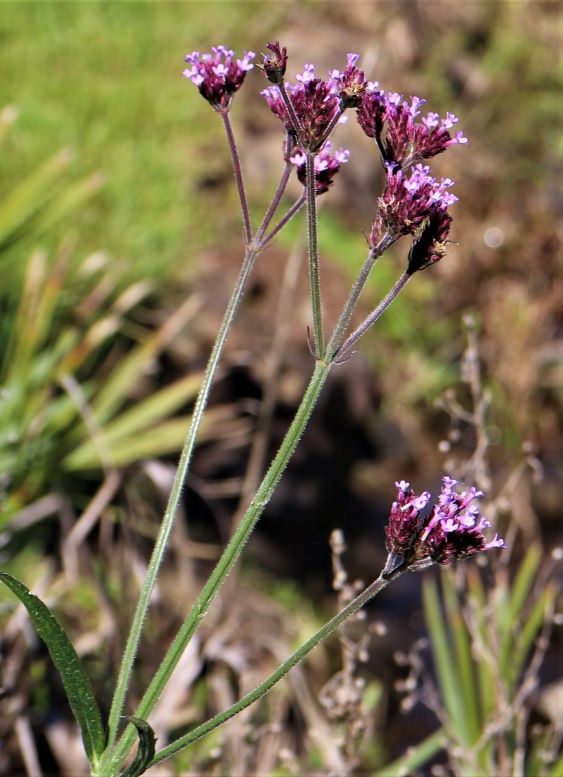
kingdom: Plantae
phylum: Tracheophyta
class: Magnoliopsida
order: Lamiales
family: Verbenaceae
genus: Verbena
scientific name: Verbena bonariensis
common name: Purpletop vervain
